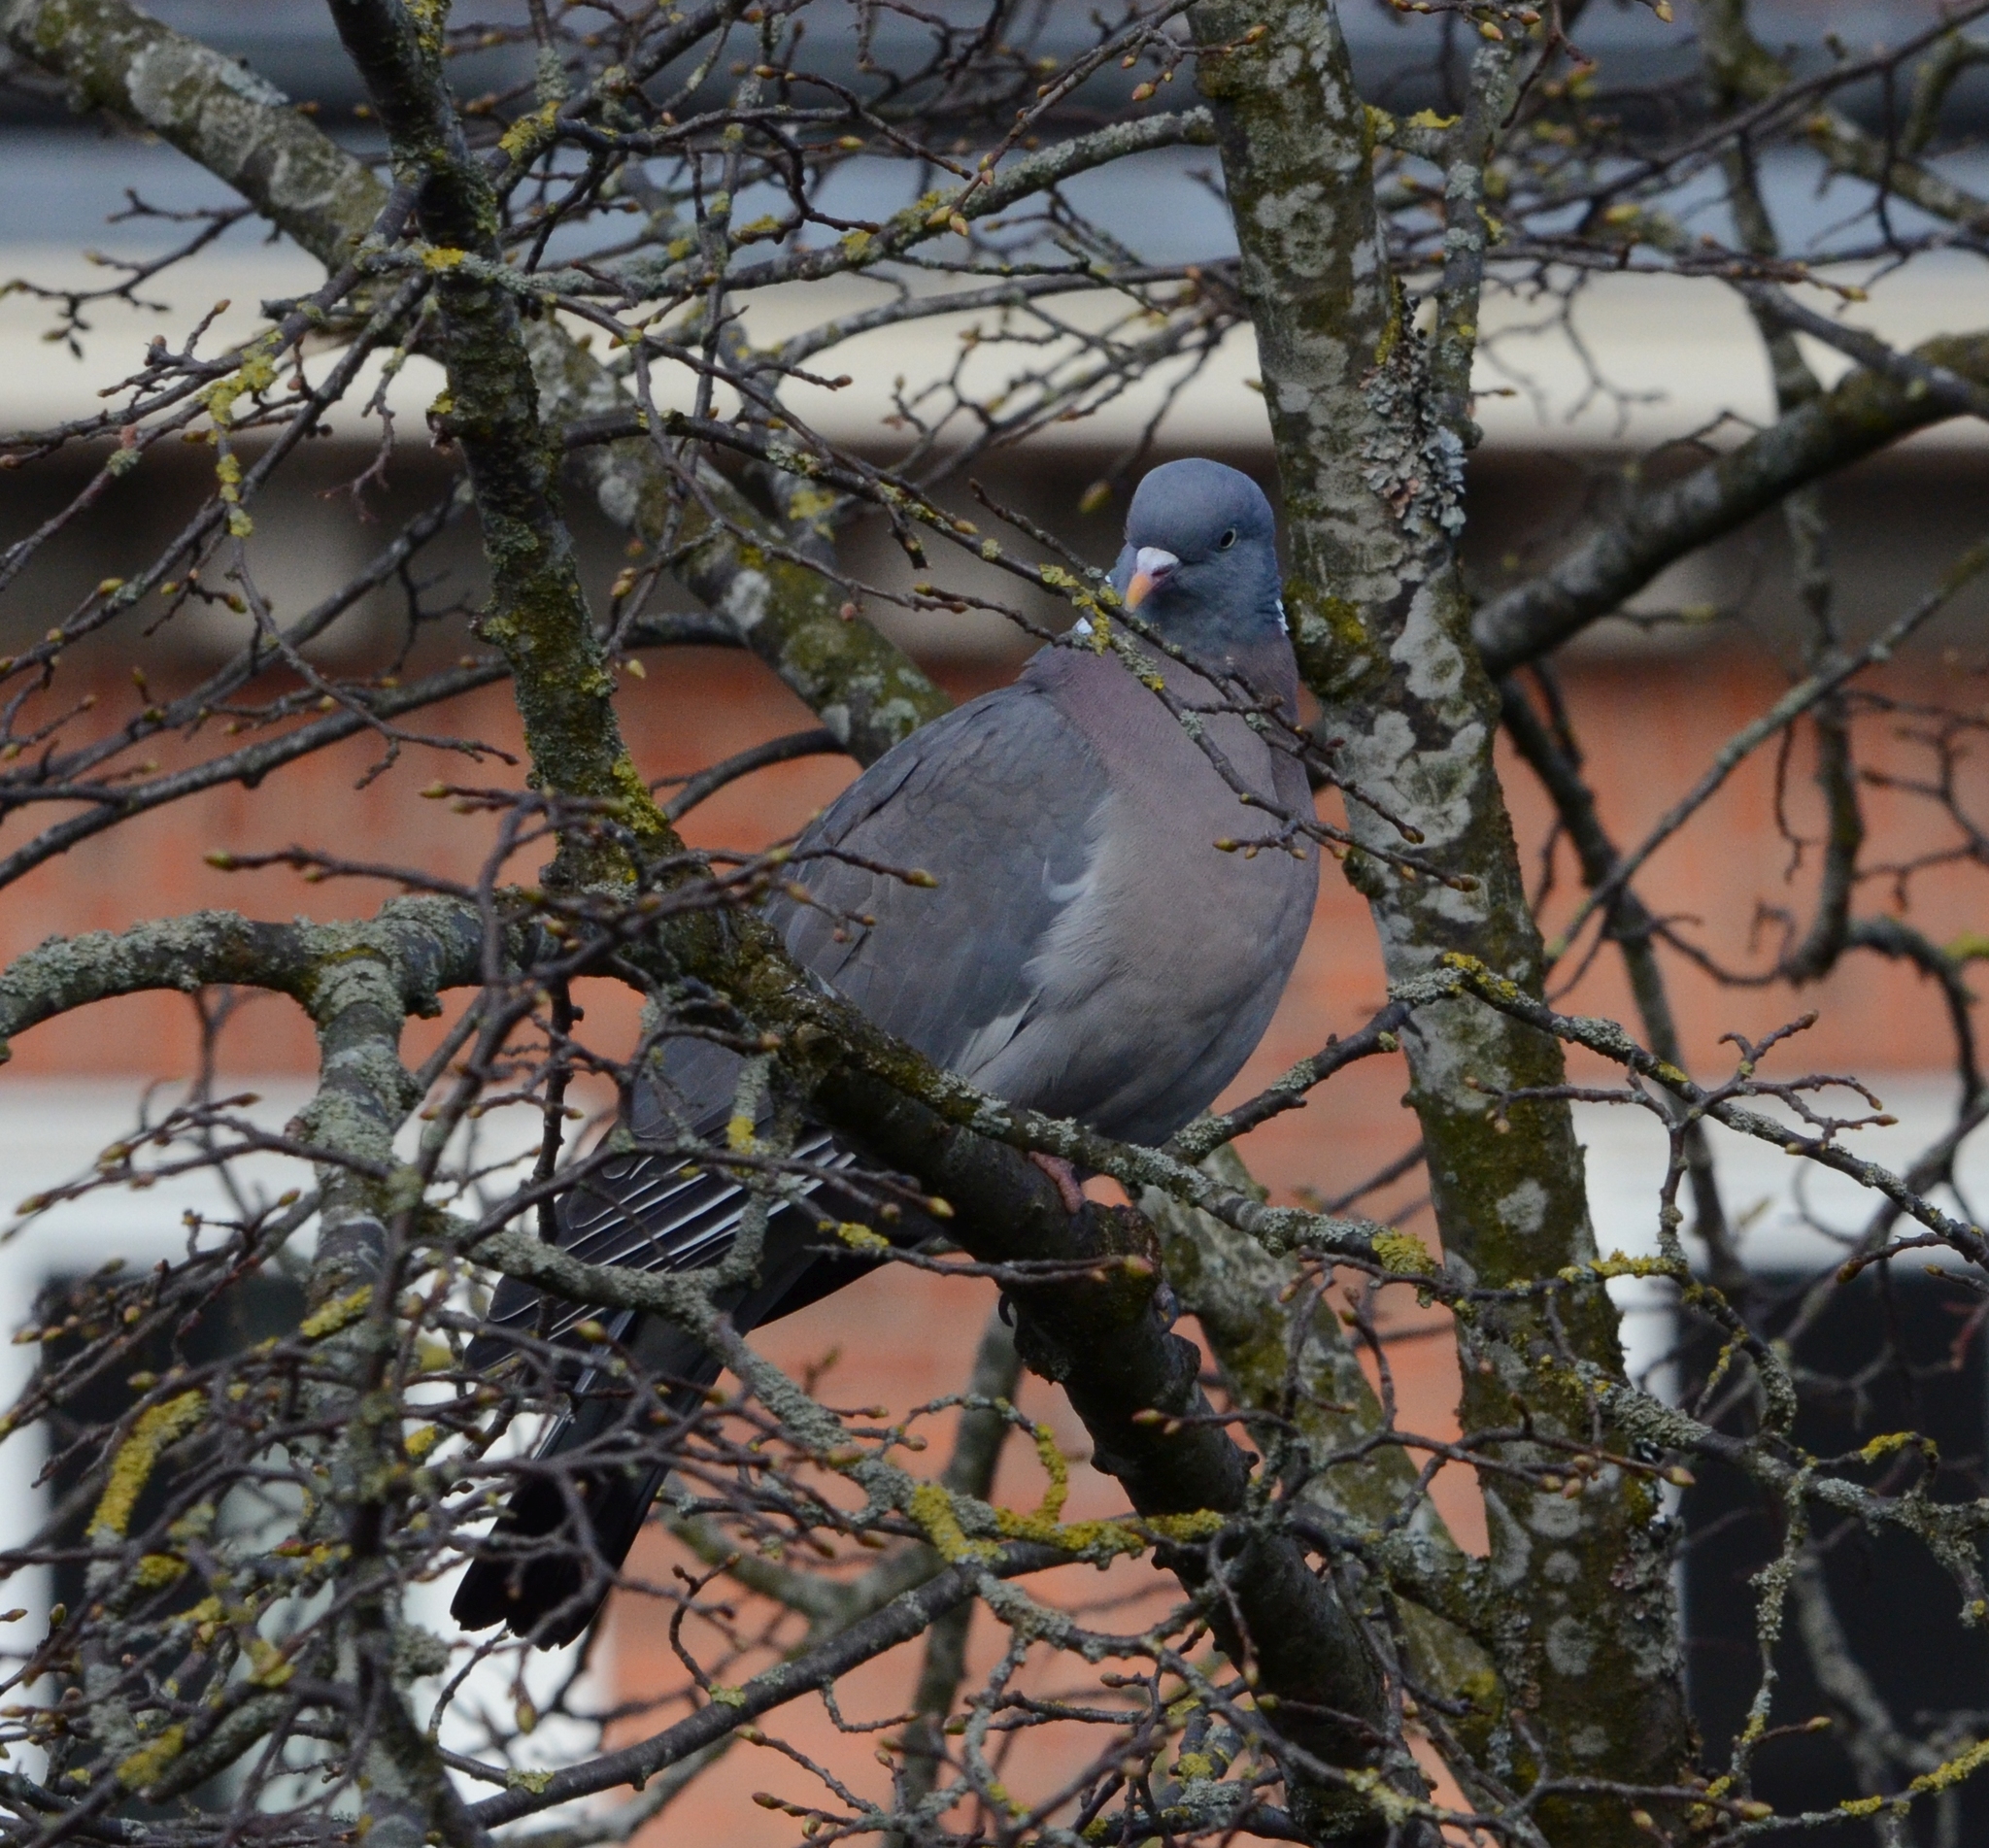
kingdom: Animalia
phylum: Chordata
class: Aves
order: Columbiformes
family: Columbidae
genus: Columba
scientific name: Columba palumbus
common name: Common wood pigeon
